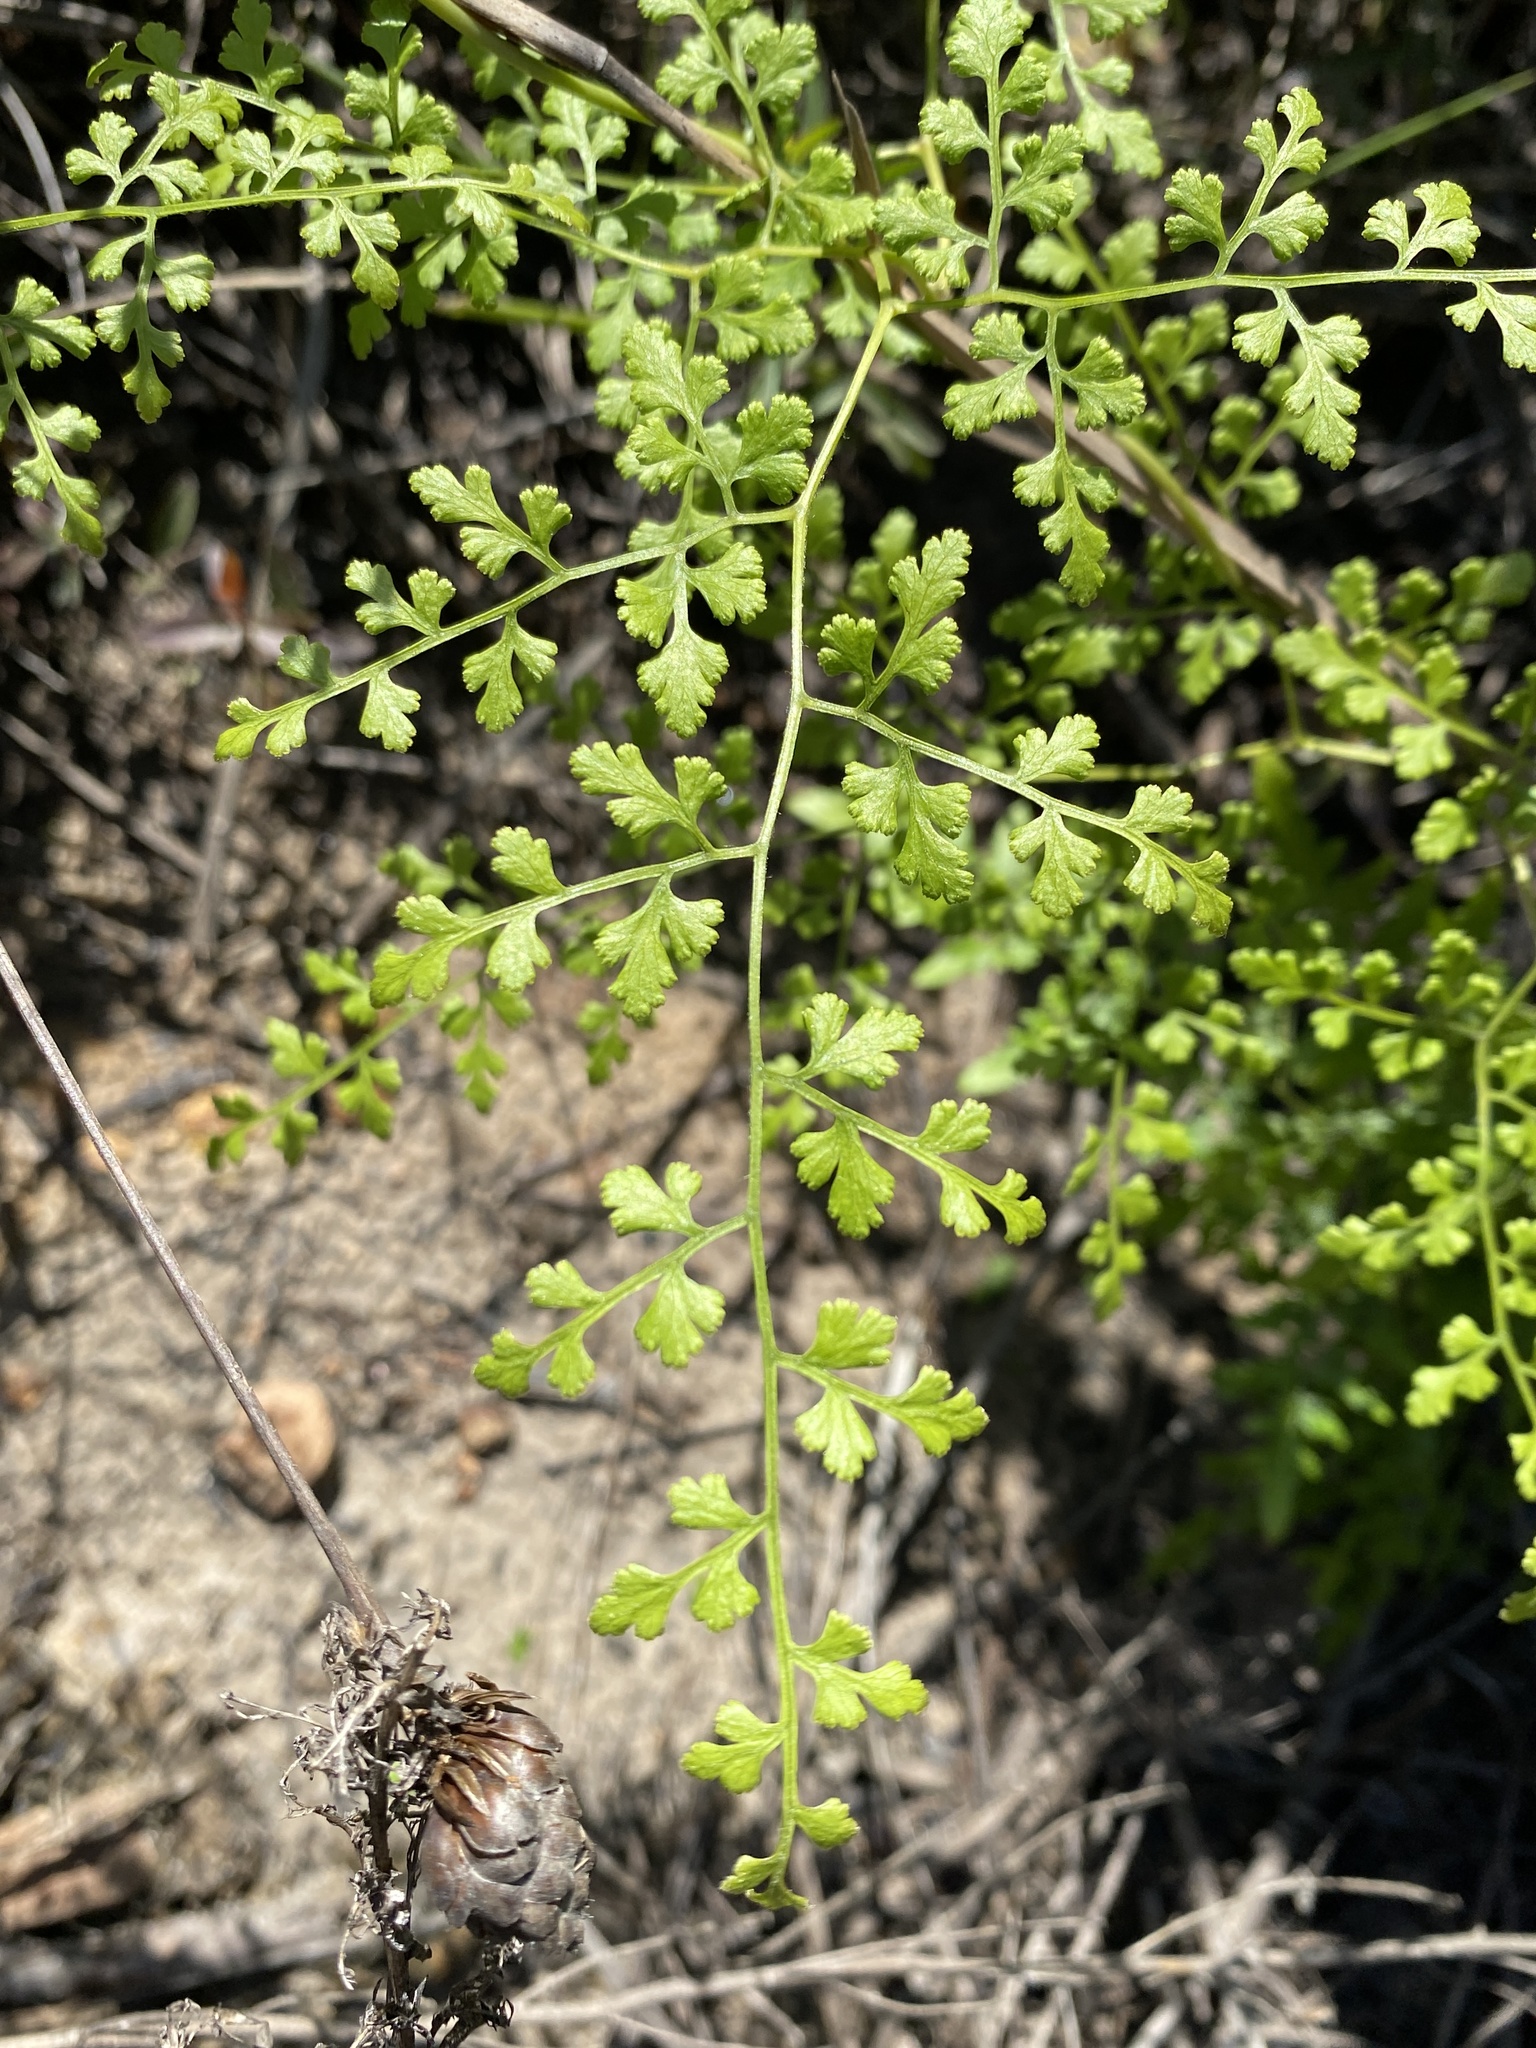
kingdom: Plantae
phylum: Tracheophyta
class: Polypodiopsida
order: Schizaeales
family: Lygodiaceae
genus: Lygodium
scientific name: Lygodium japonicum
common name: Japanese climbing fern
